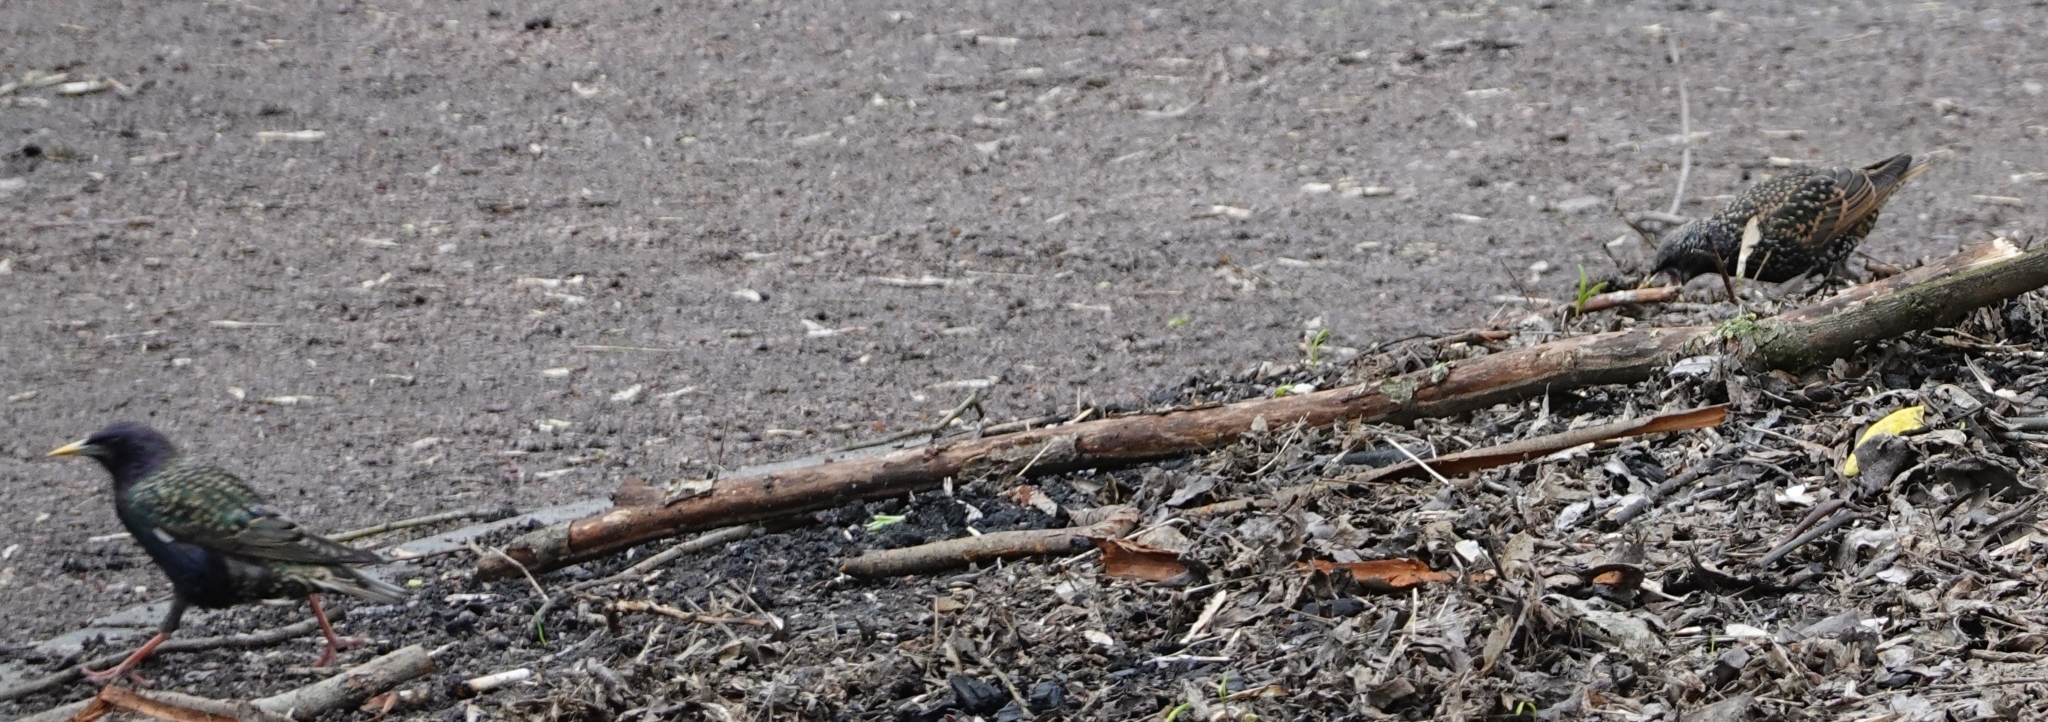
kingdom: Animalia
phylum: Chordata
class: Aves
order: Passeriformes
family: Sturnidae
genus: Sturnus
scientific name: Sturnus vulgaris
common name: Common starling
